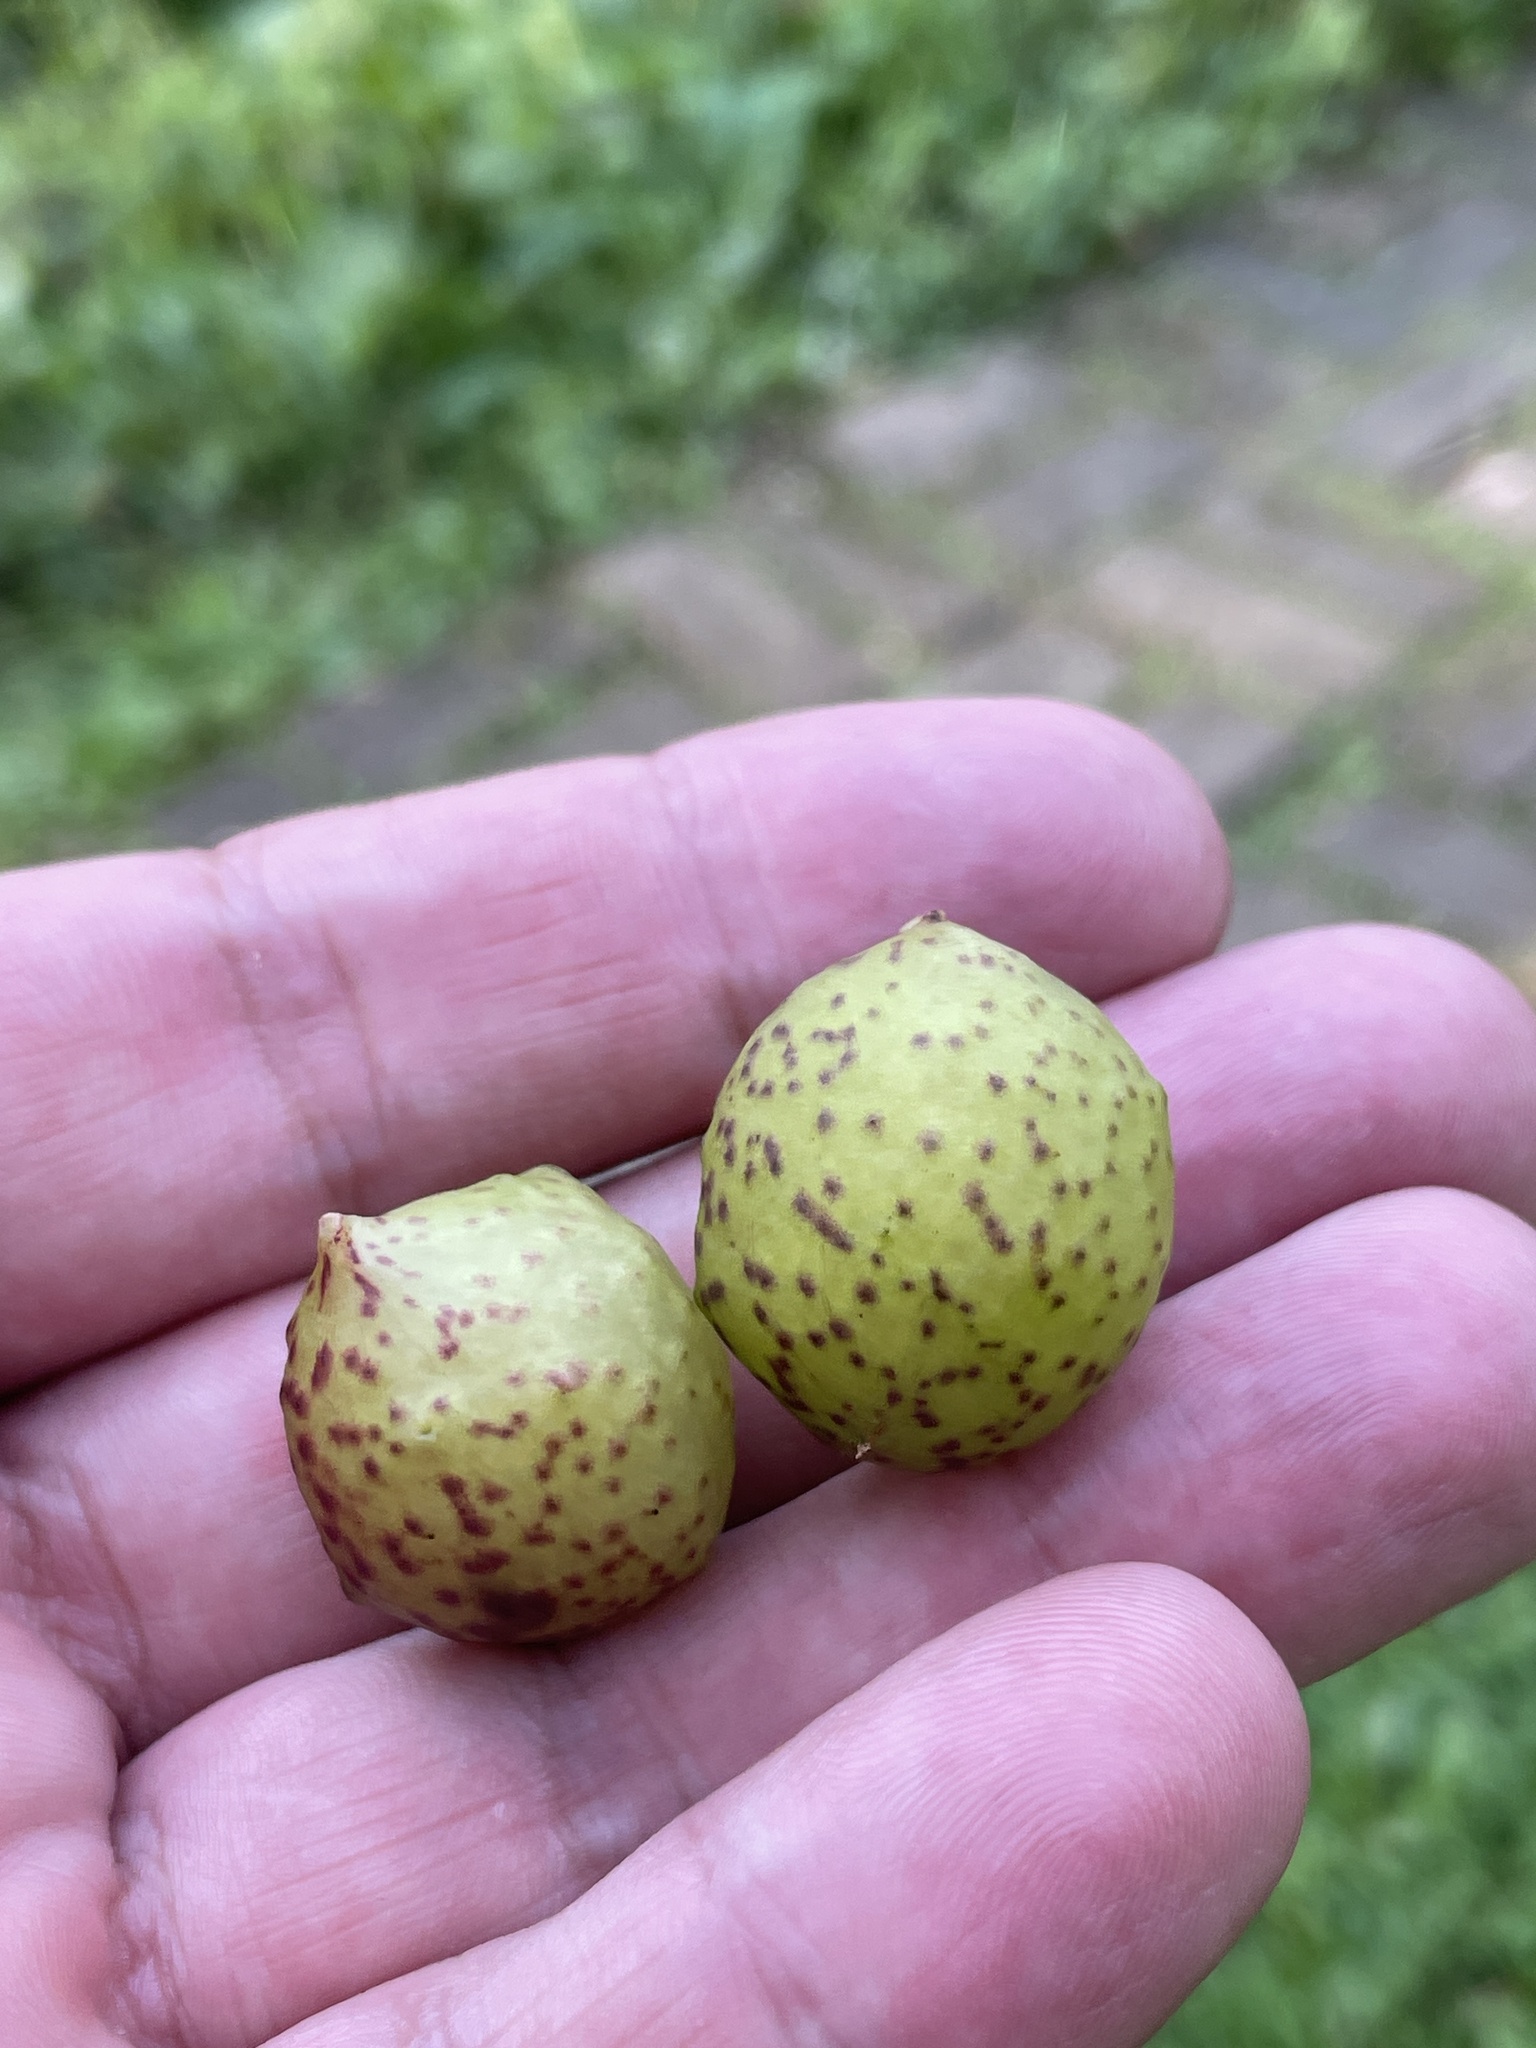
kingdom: Animalia
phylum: Arthropoda
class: Insecta
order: Hymenoptera
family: Cynipidae
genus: Amphibolips
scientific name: Amphibolips
